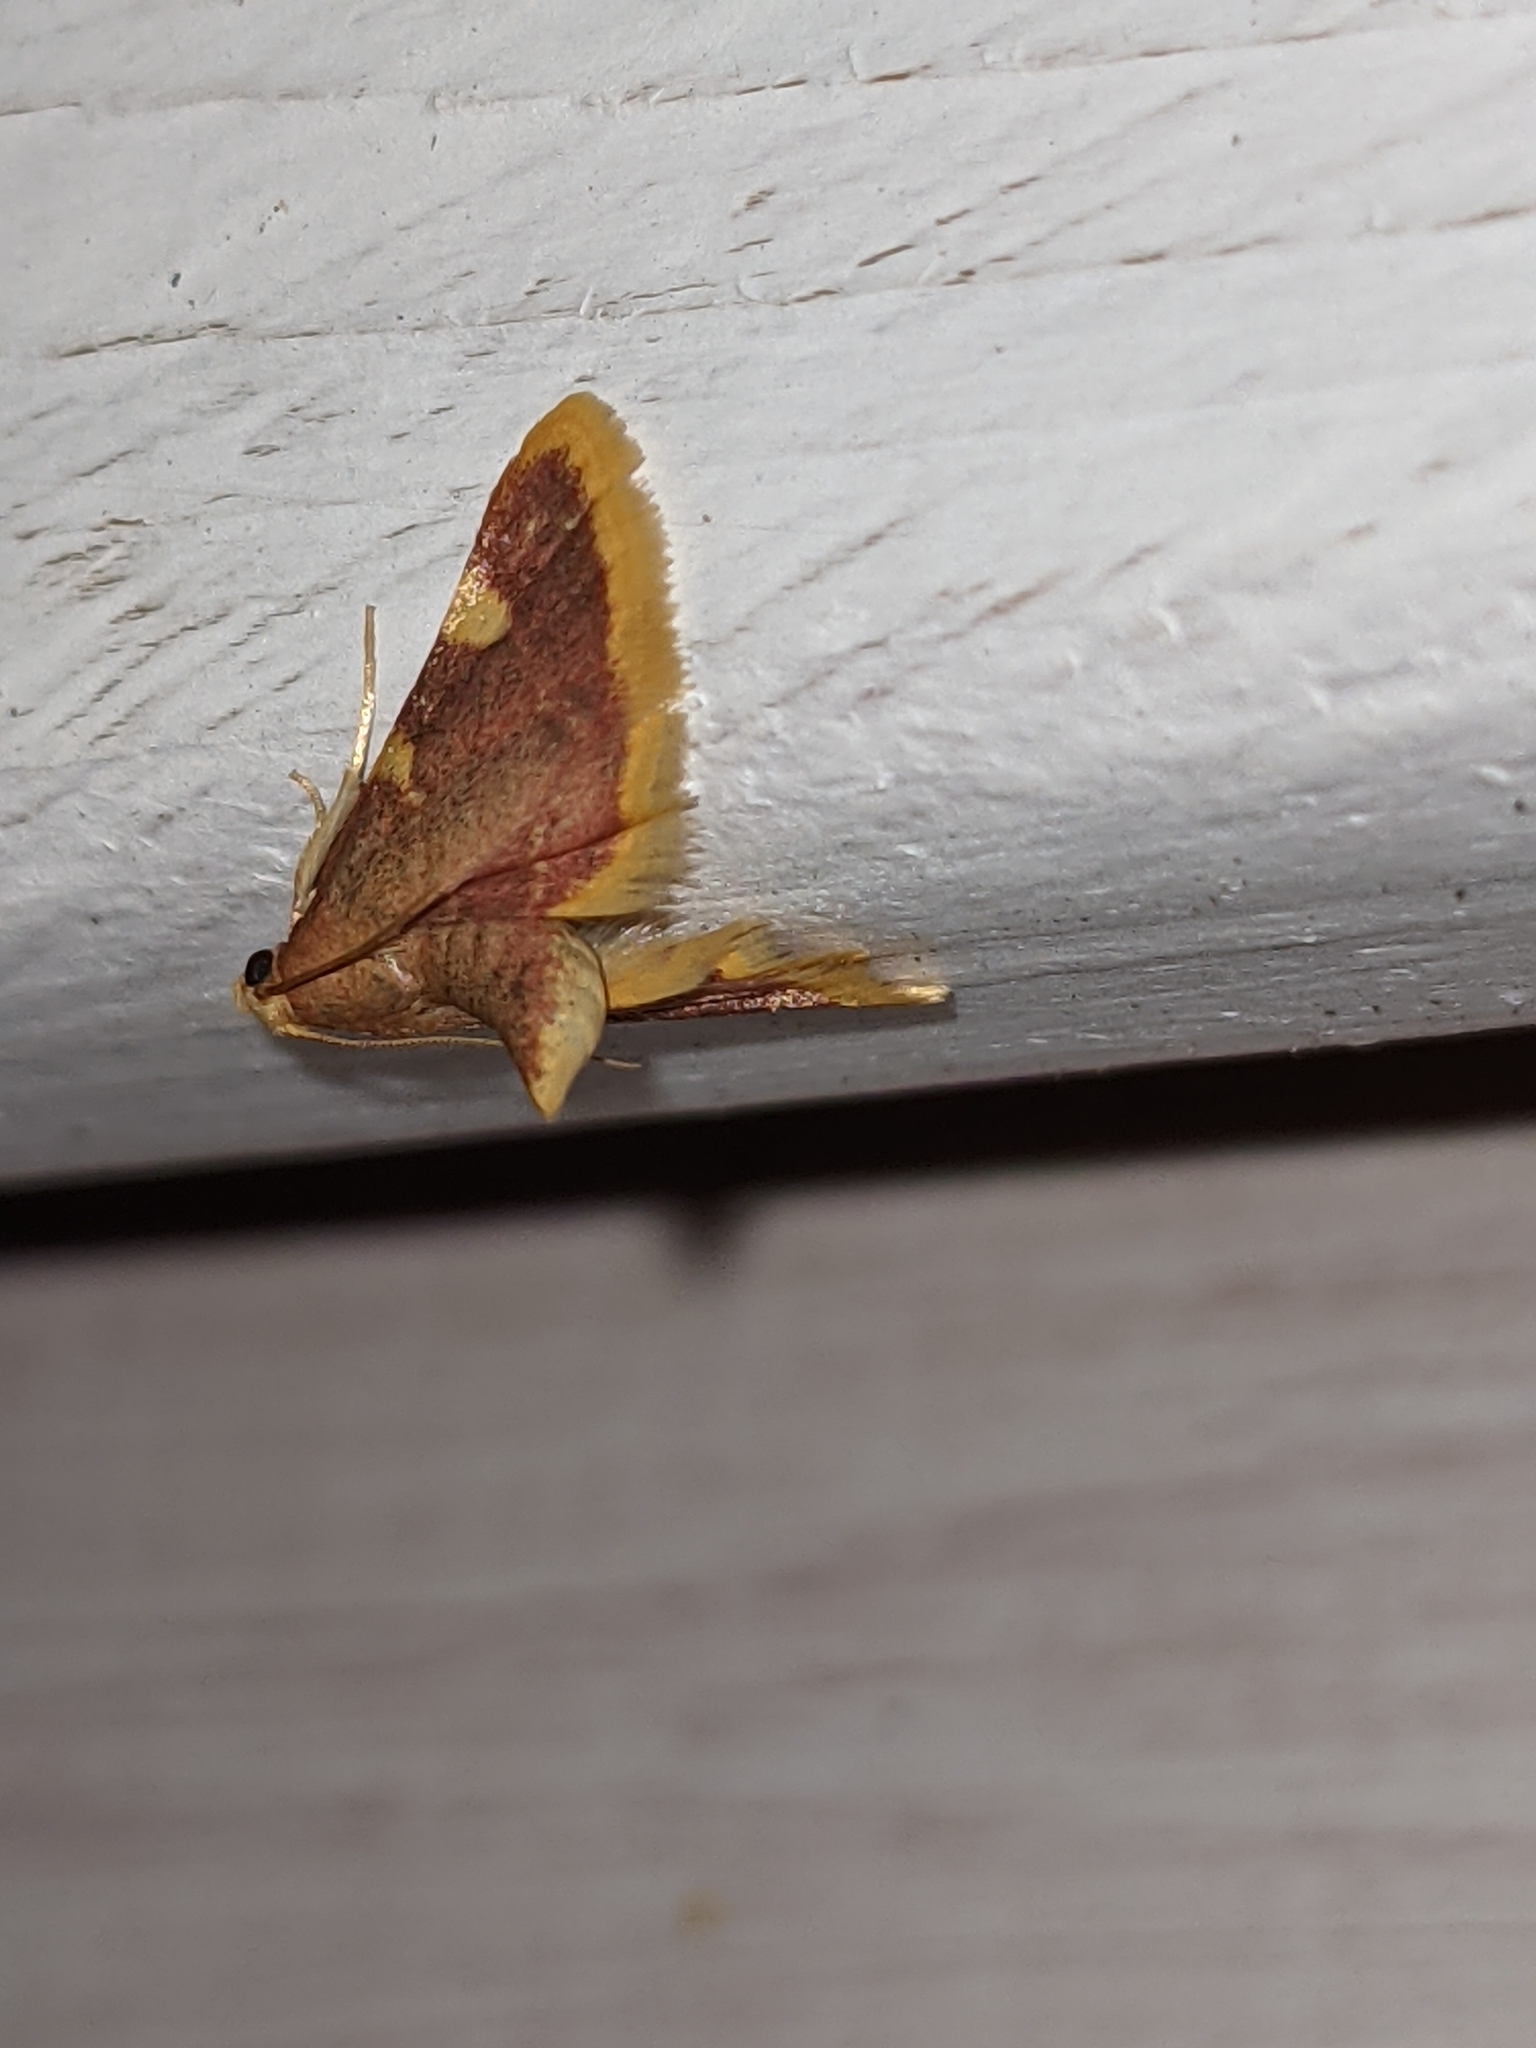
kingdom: Animalia
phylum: Arthropoda
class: Insecta
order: Lepidoptera
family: Pyralidae
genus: Hypsopygia
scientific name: Hypsopygia costalis
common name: Gold triangle
